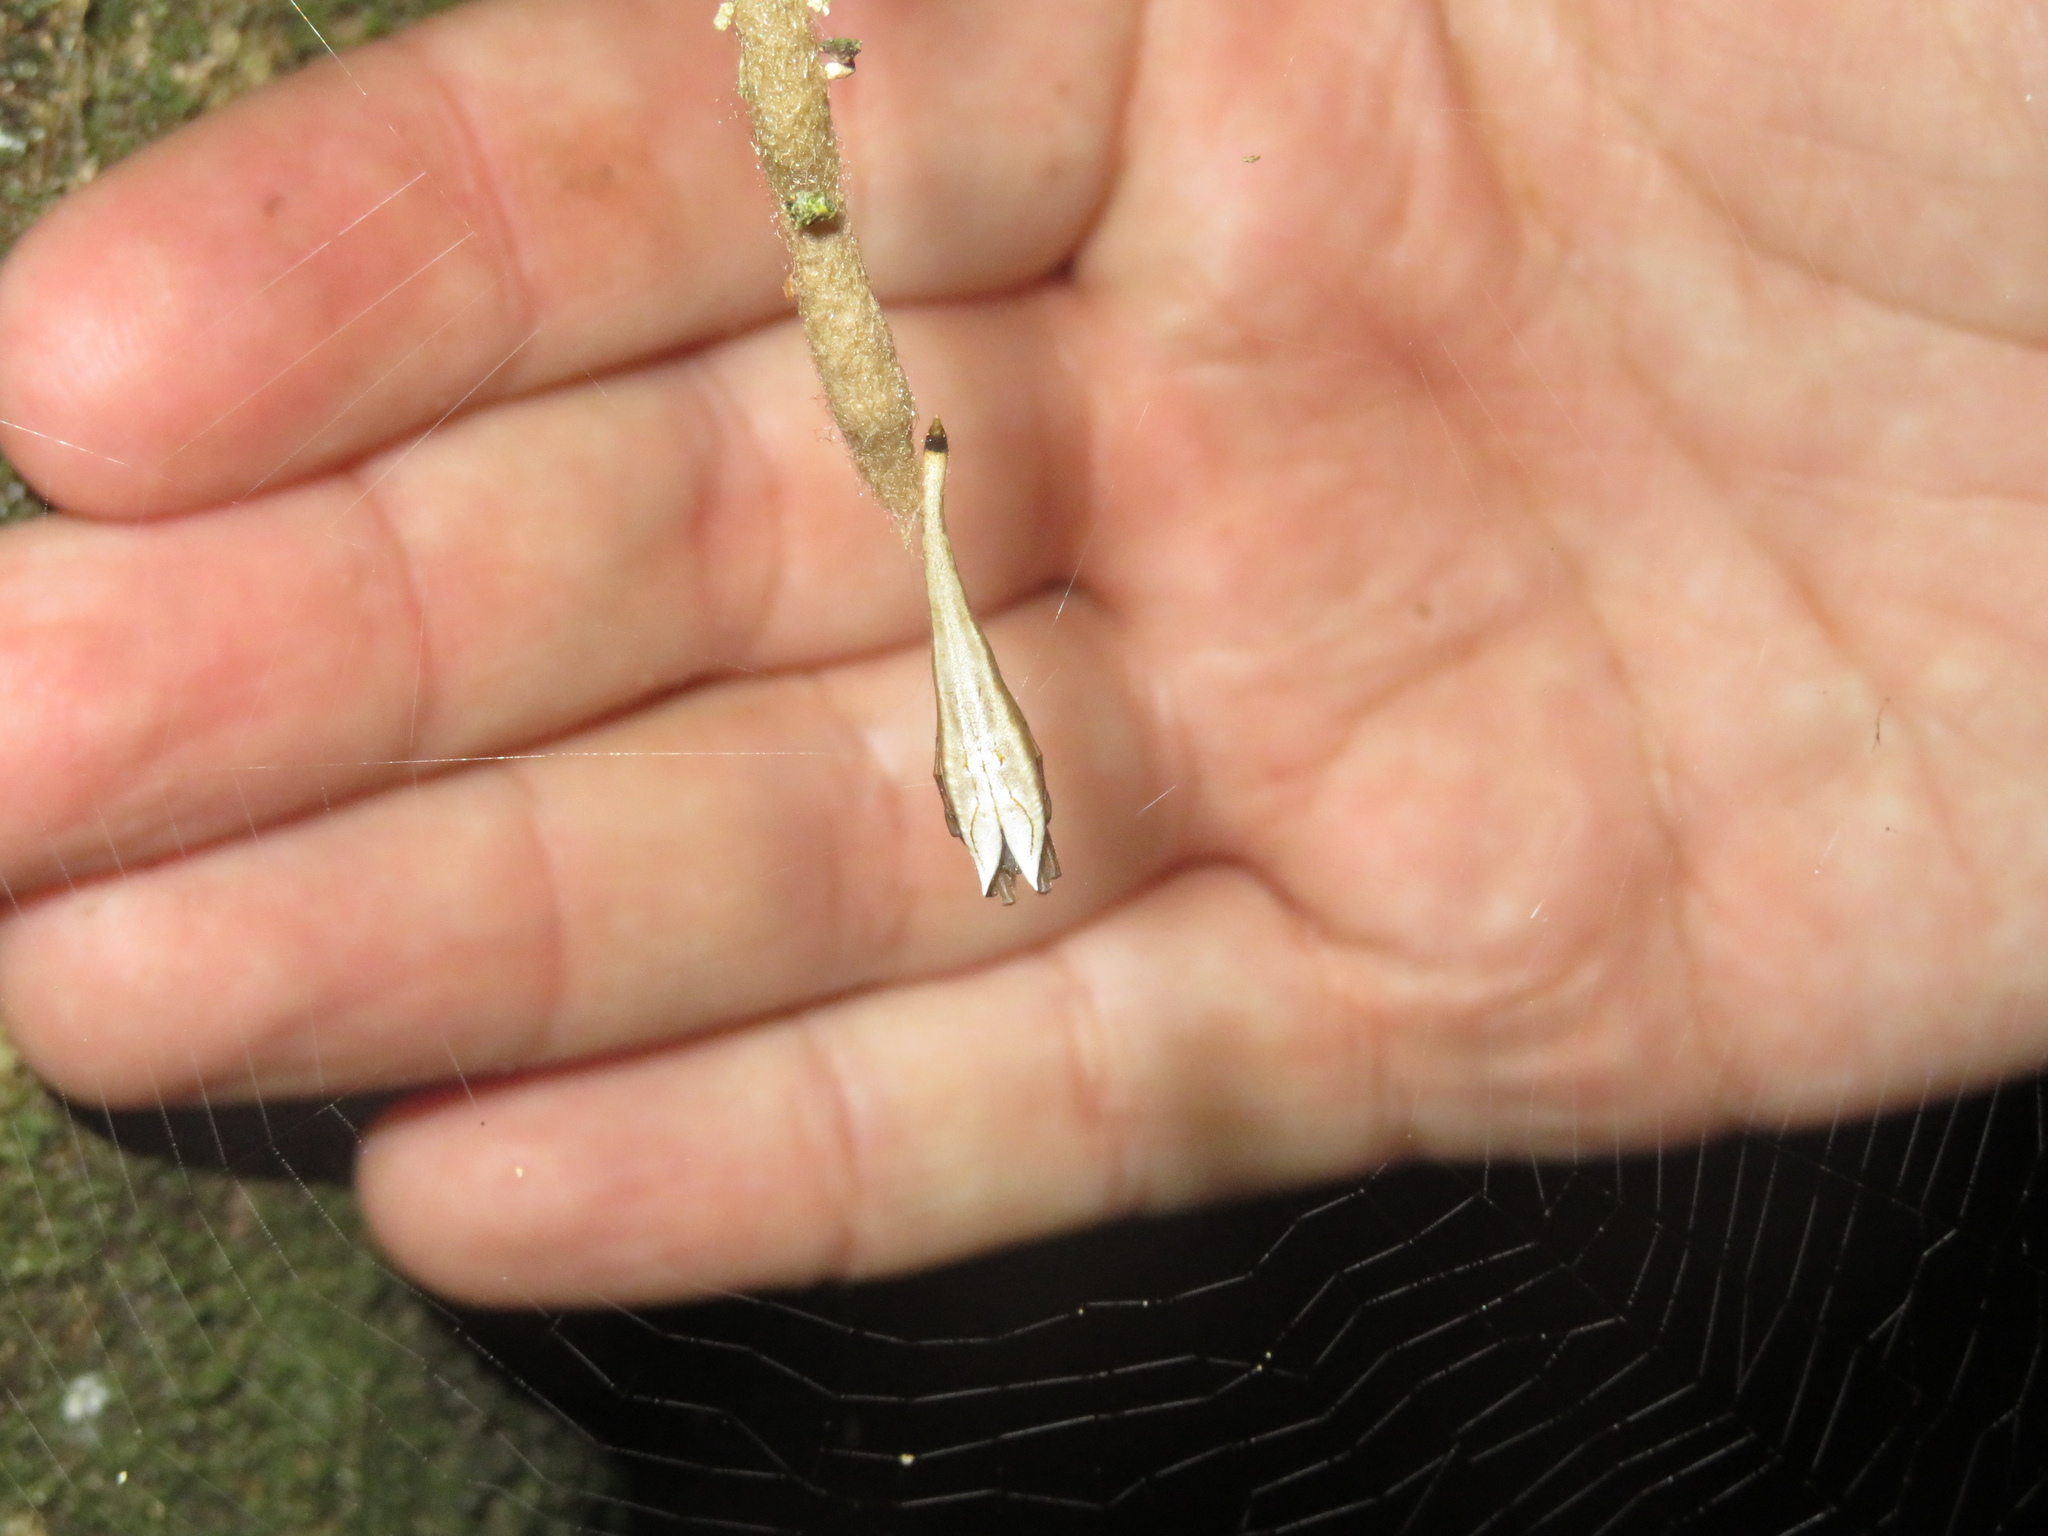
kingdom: Animalia
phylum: Arthropoda
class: Arachnida
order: Araneae
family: Araneidae
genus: Arachnura
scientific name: Arachnura feredayi
